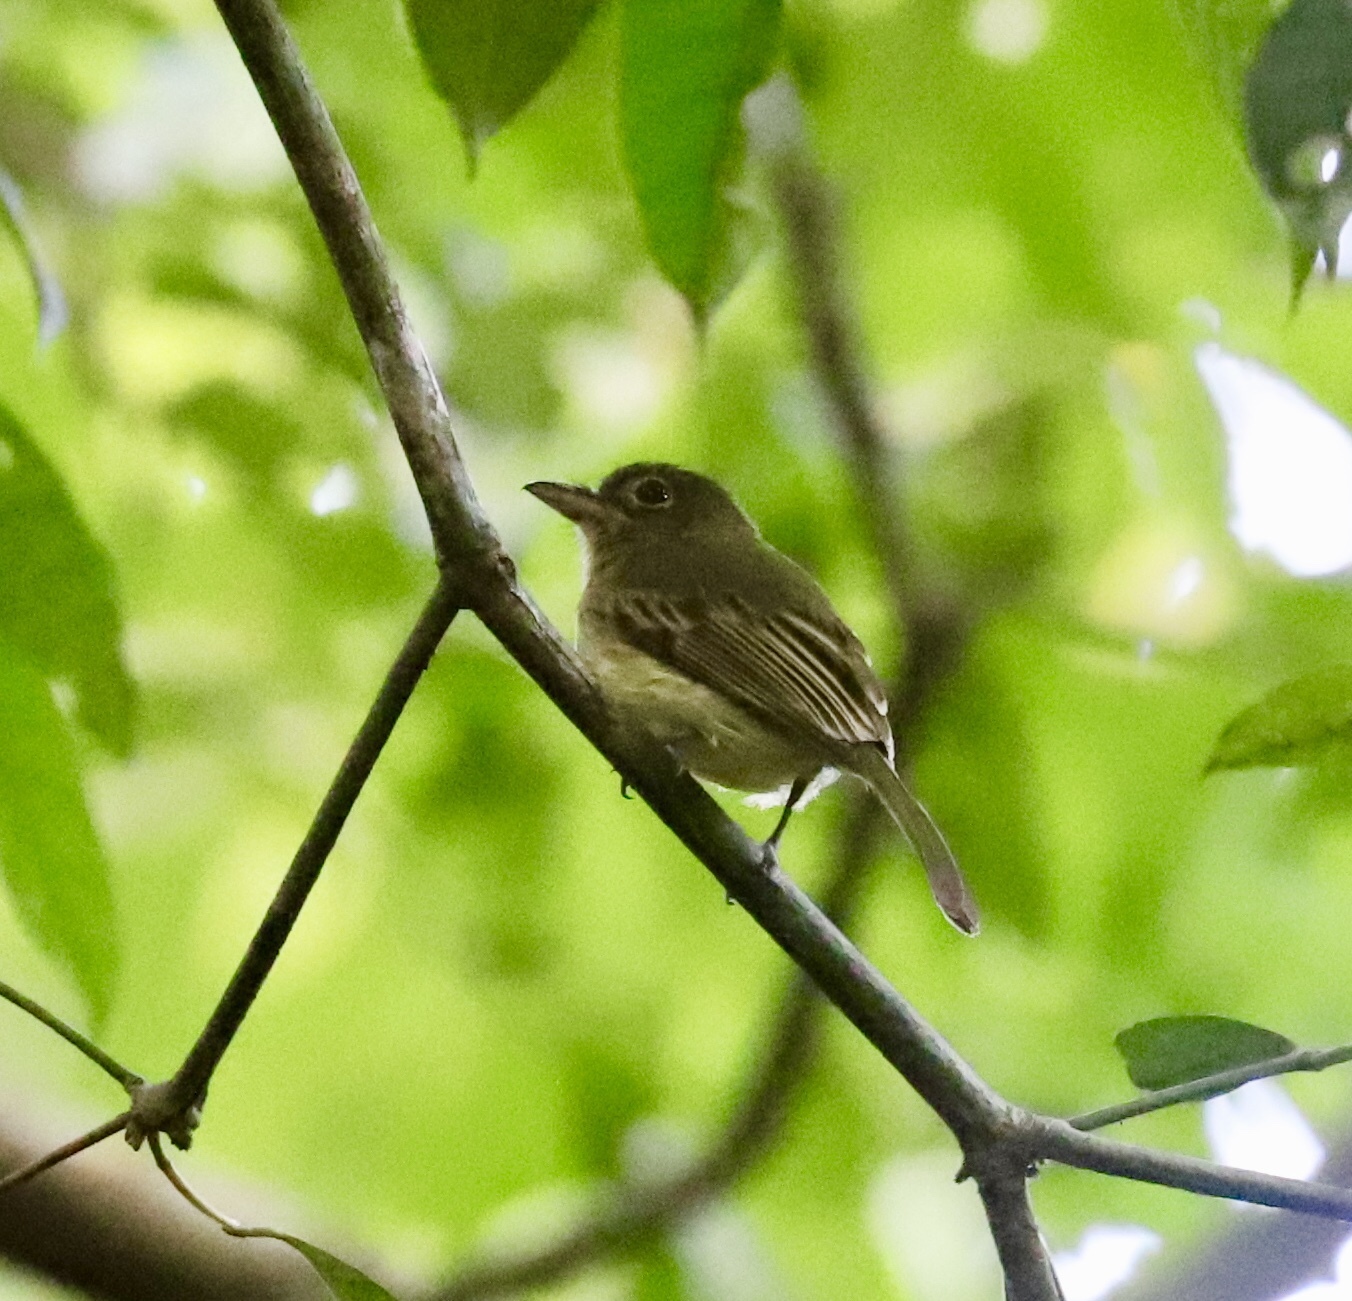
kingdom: Animalia
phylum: Chordata
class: Aves
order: Passeriformes
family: Tyrannidae
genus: Rhynchocyclus
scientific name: Rhynchocyclus olivaceus
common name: Olivaceous flatbill
